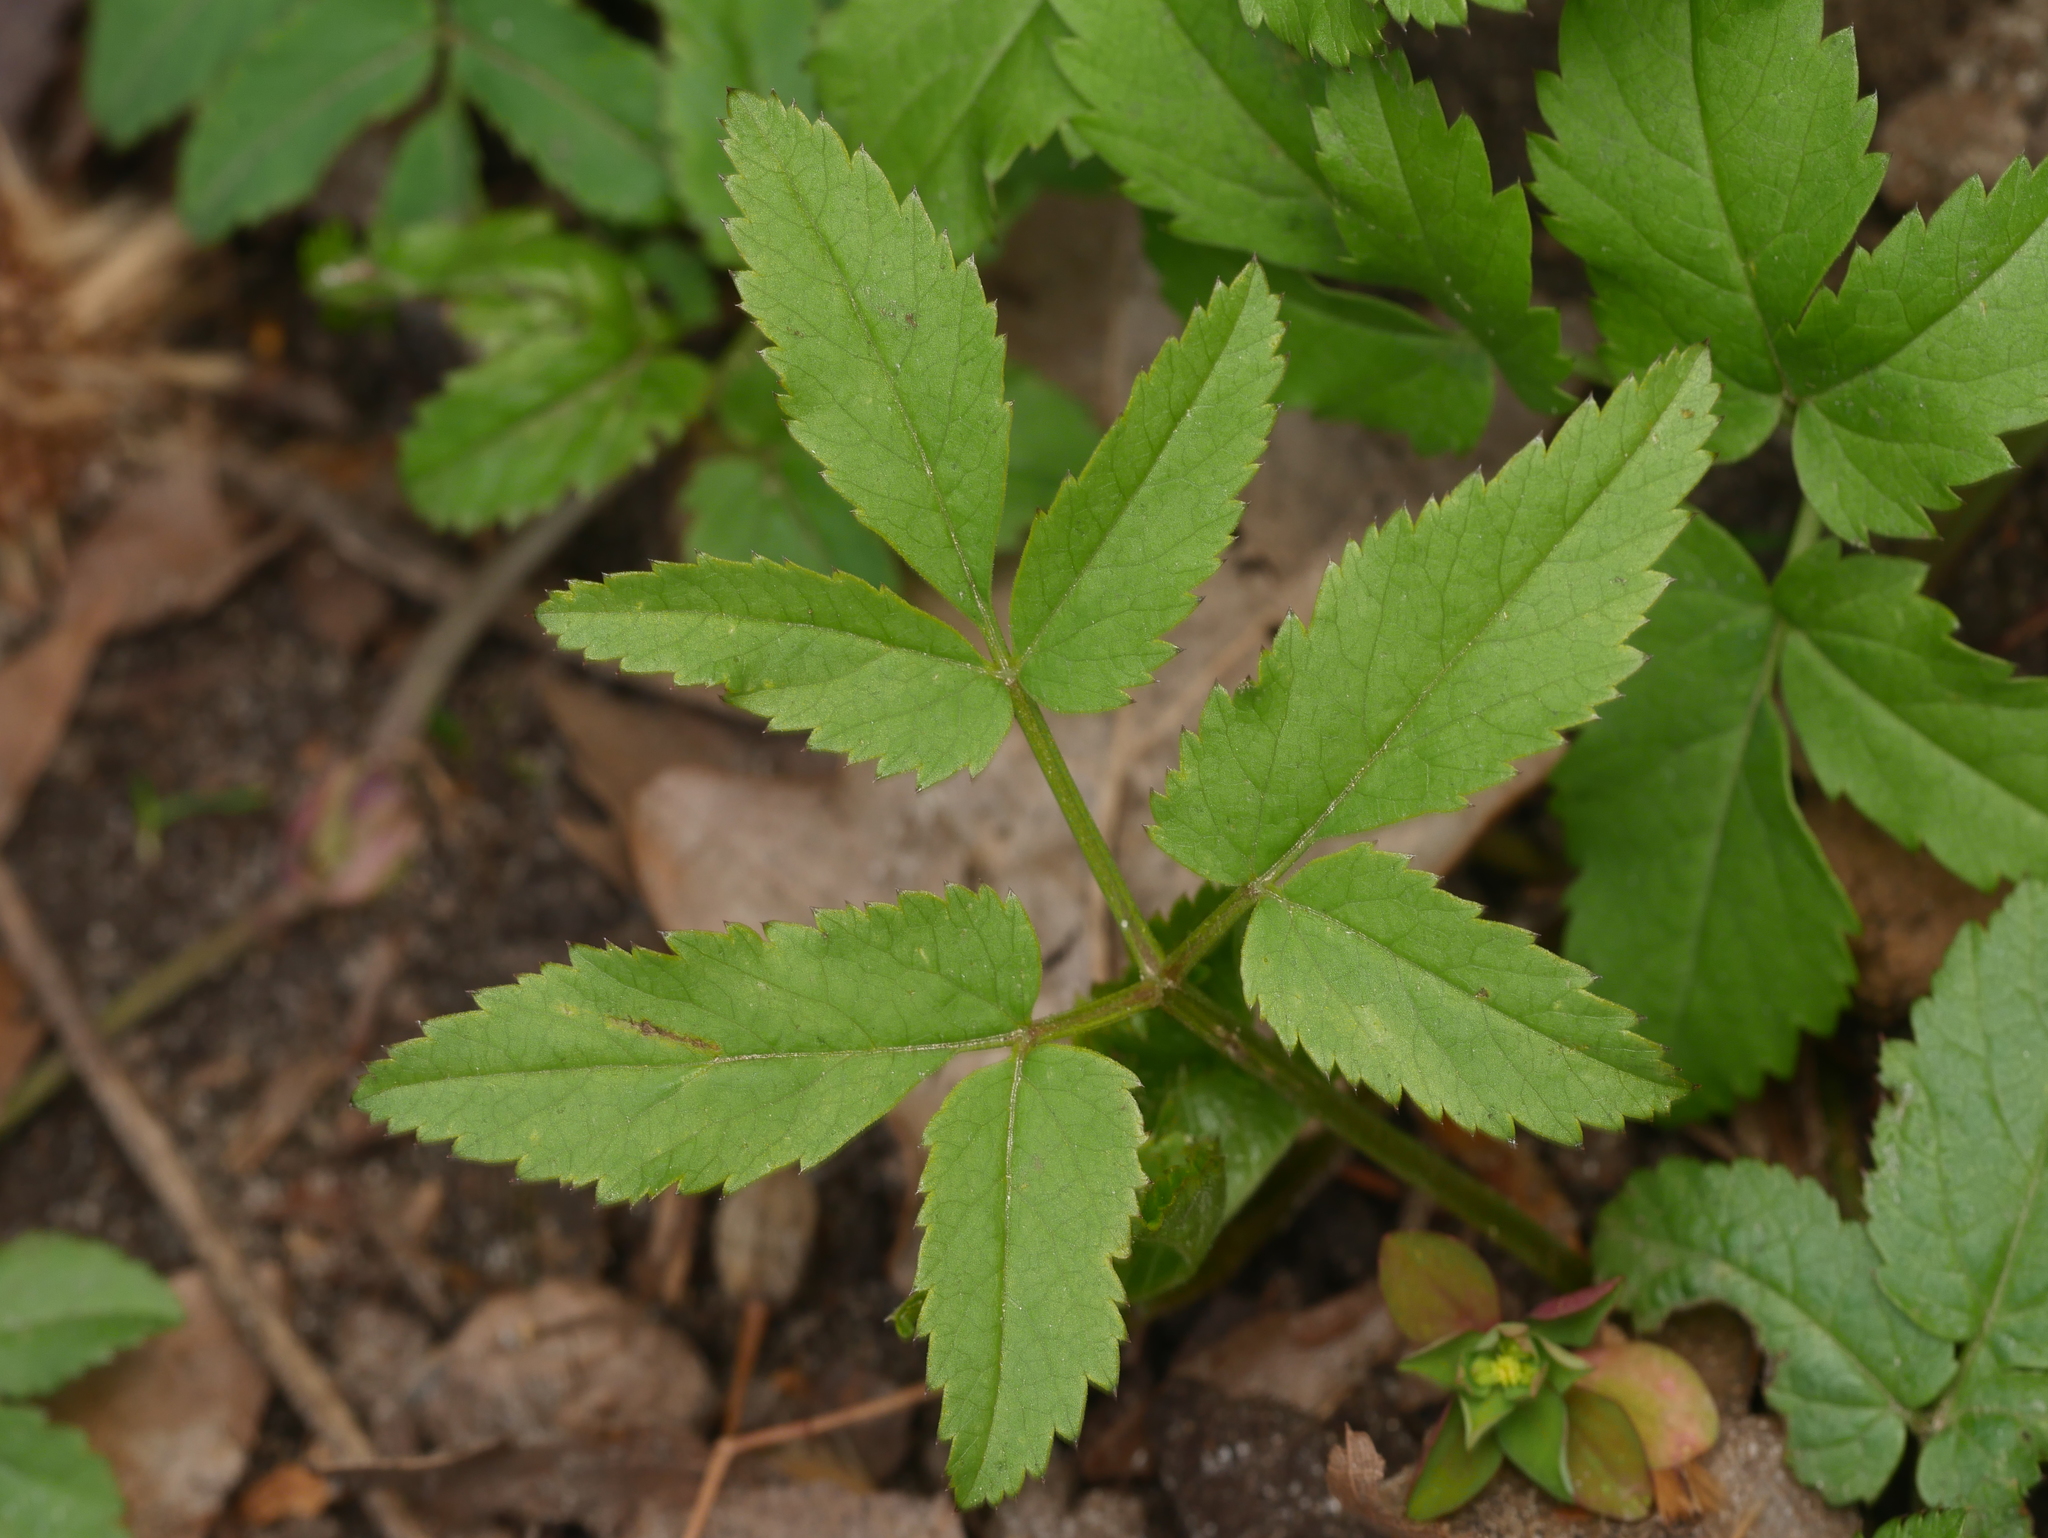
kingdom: Plantae
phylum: Tracheophyta
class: Magnoliopsida
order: Apiales
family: Apiaceae
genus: Aegopodium
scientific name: Aegopodium podagraria
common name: Ground-elder
